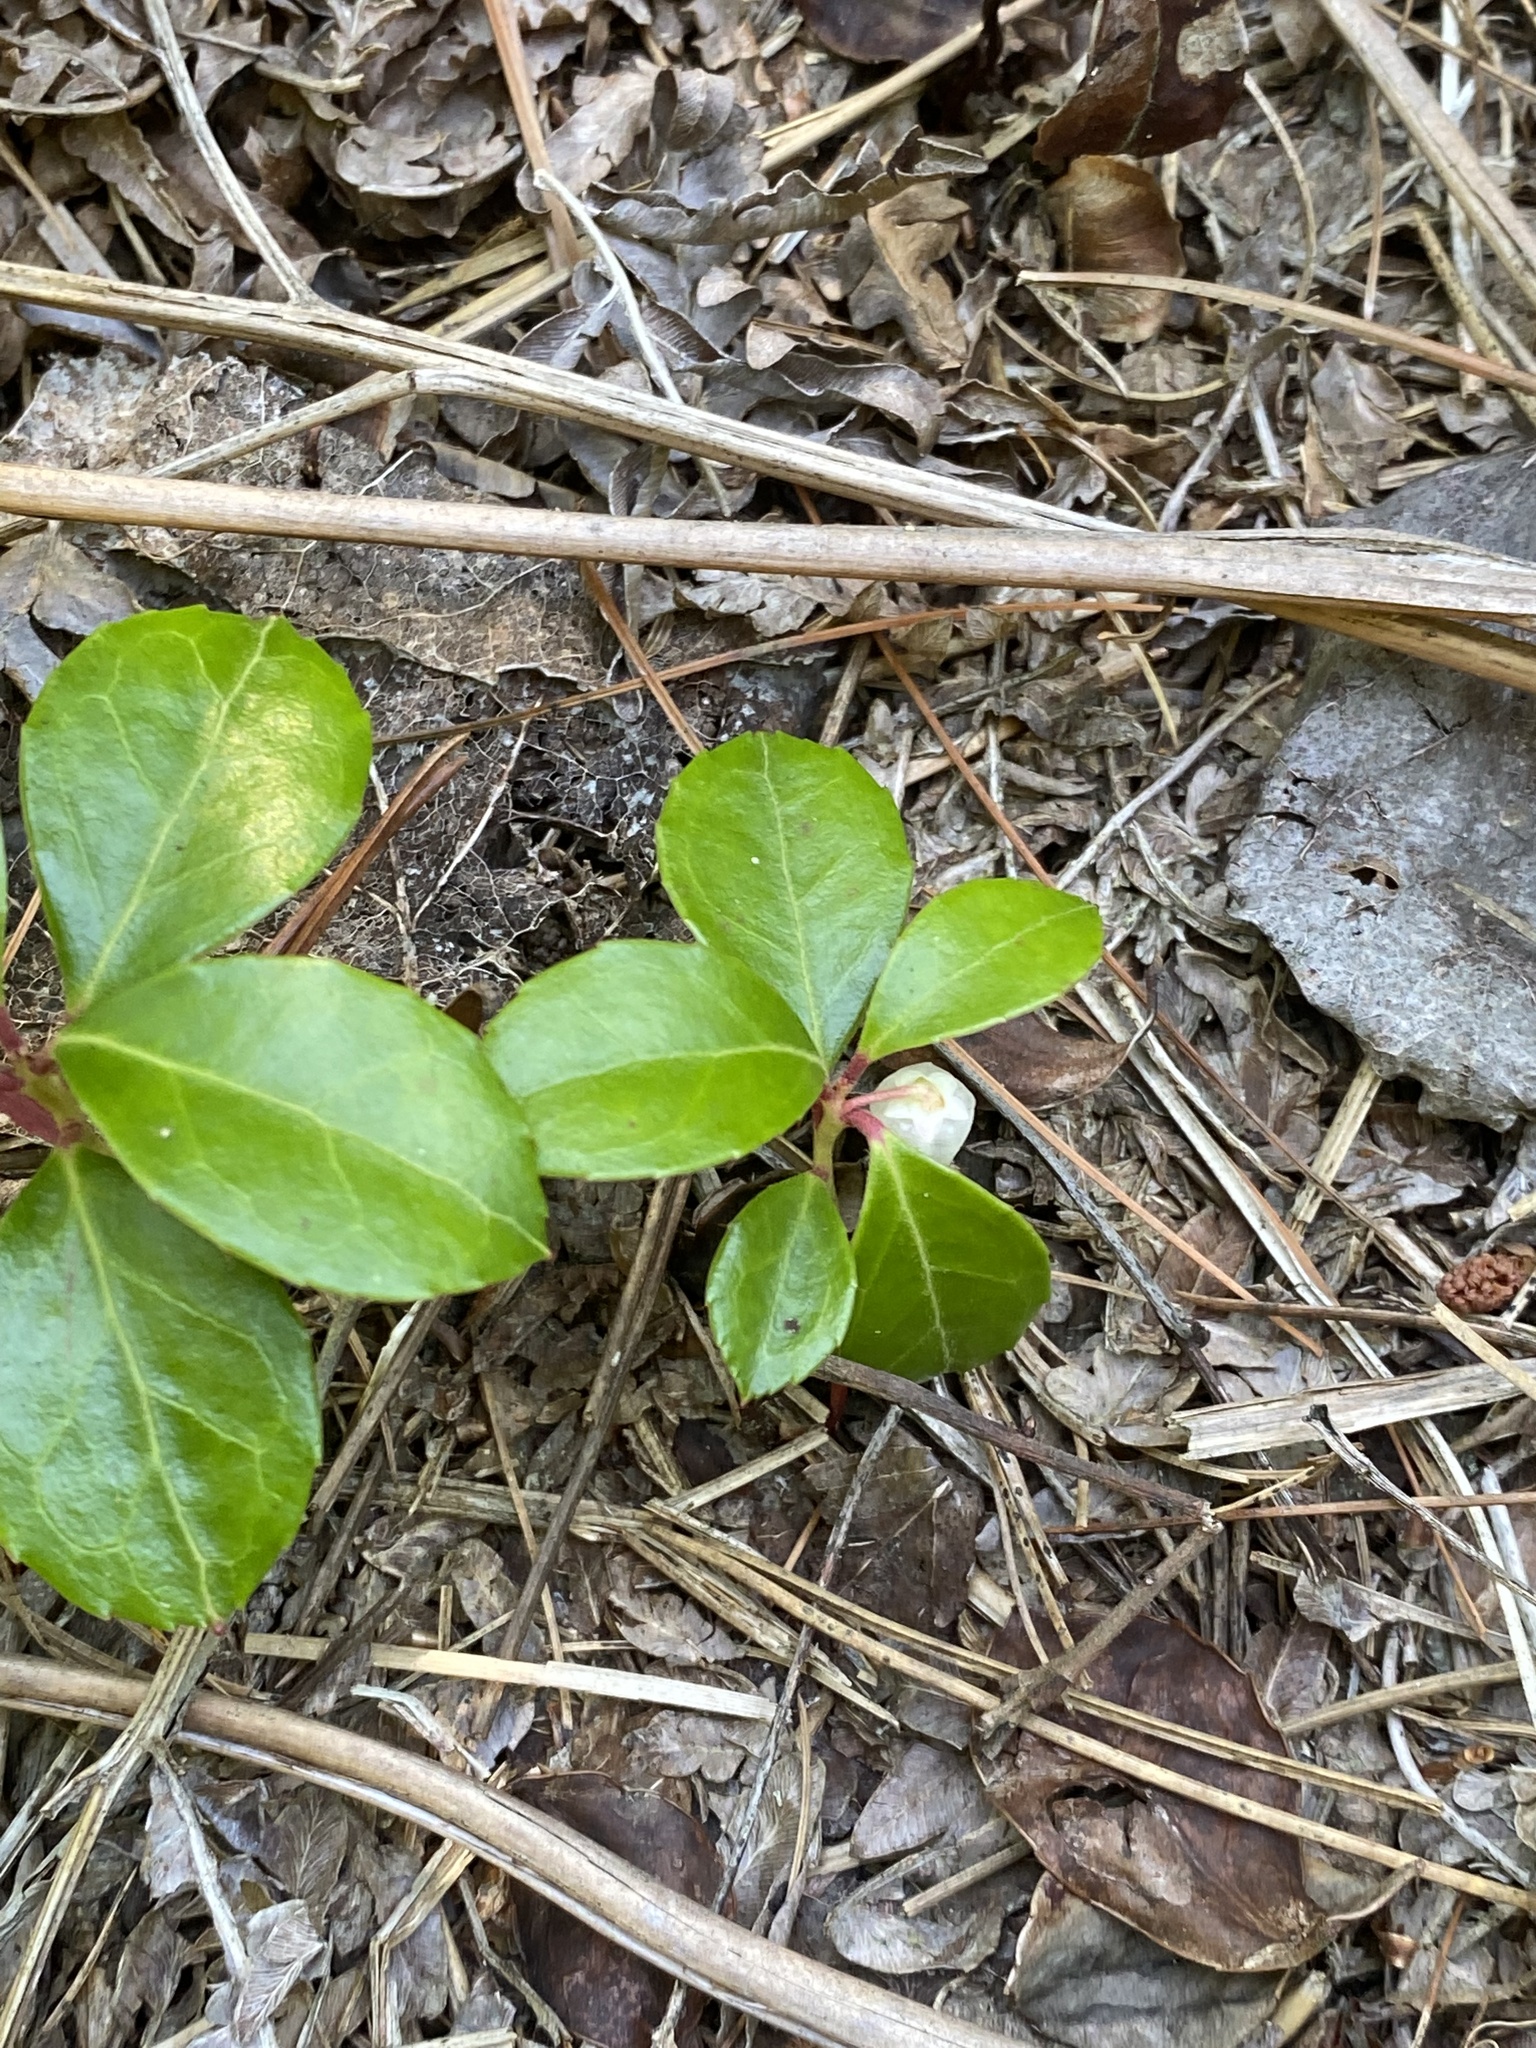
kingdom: Plantae
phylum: Tracheophyta
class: Magnoliopsida
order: Ericales
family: Ericaceae
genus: Gaultheria
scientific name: Gaultheria procumbens
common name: Checkerberry
